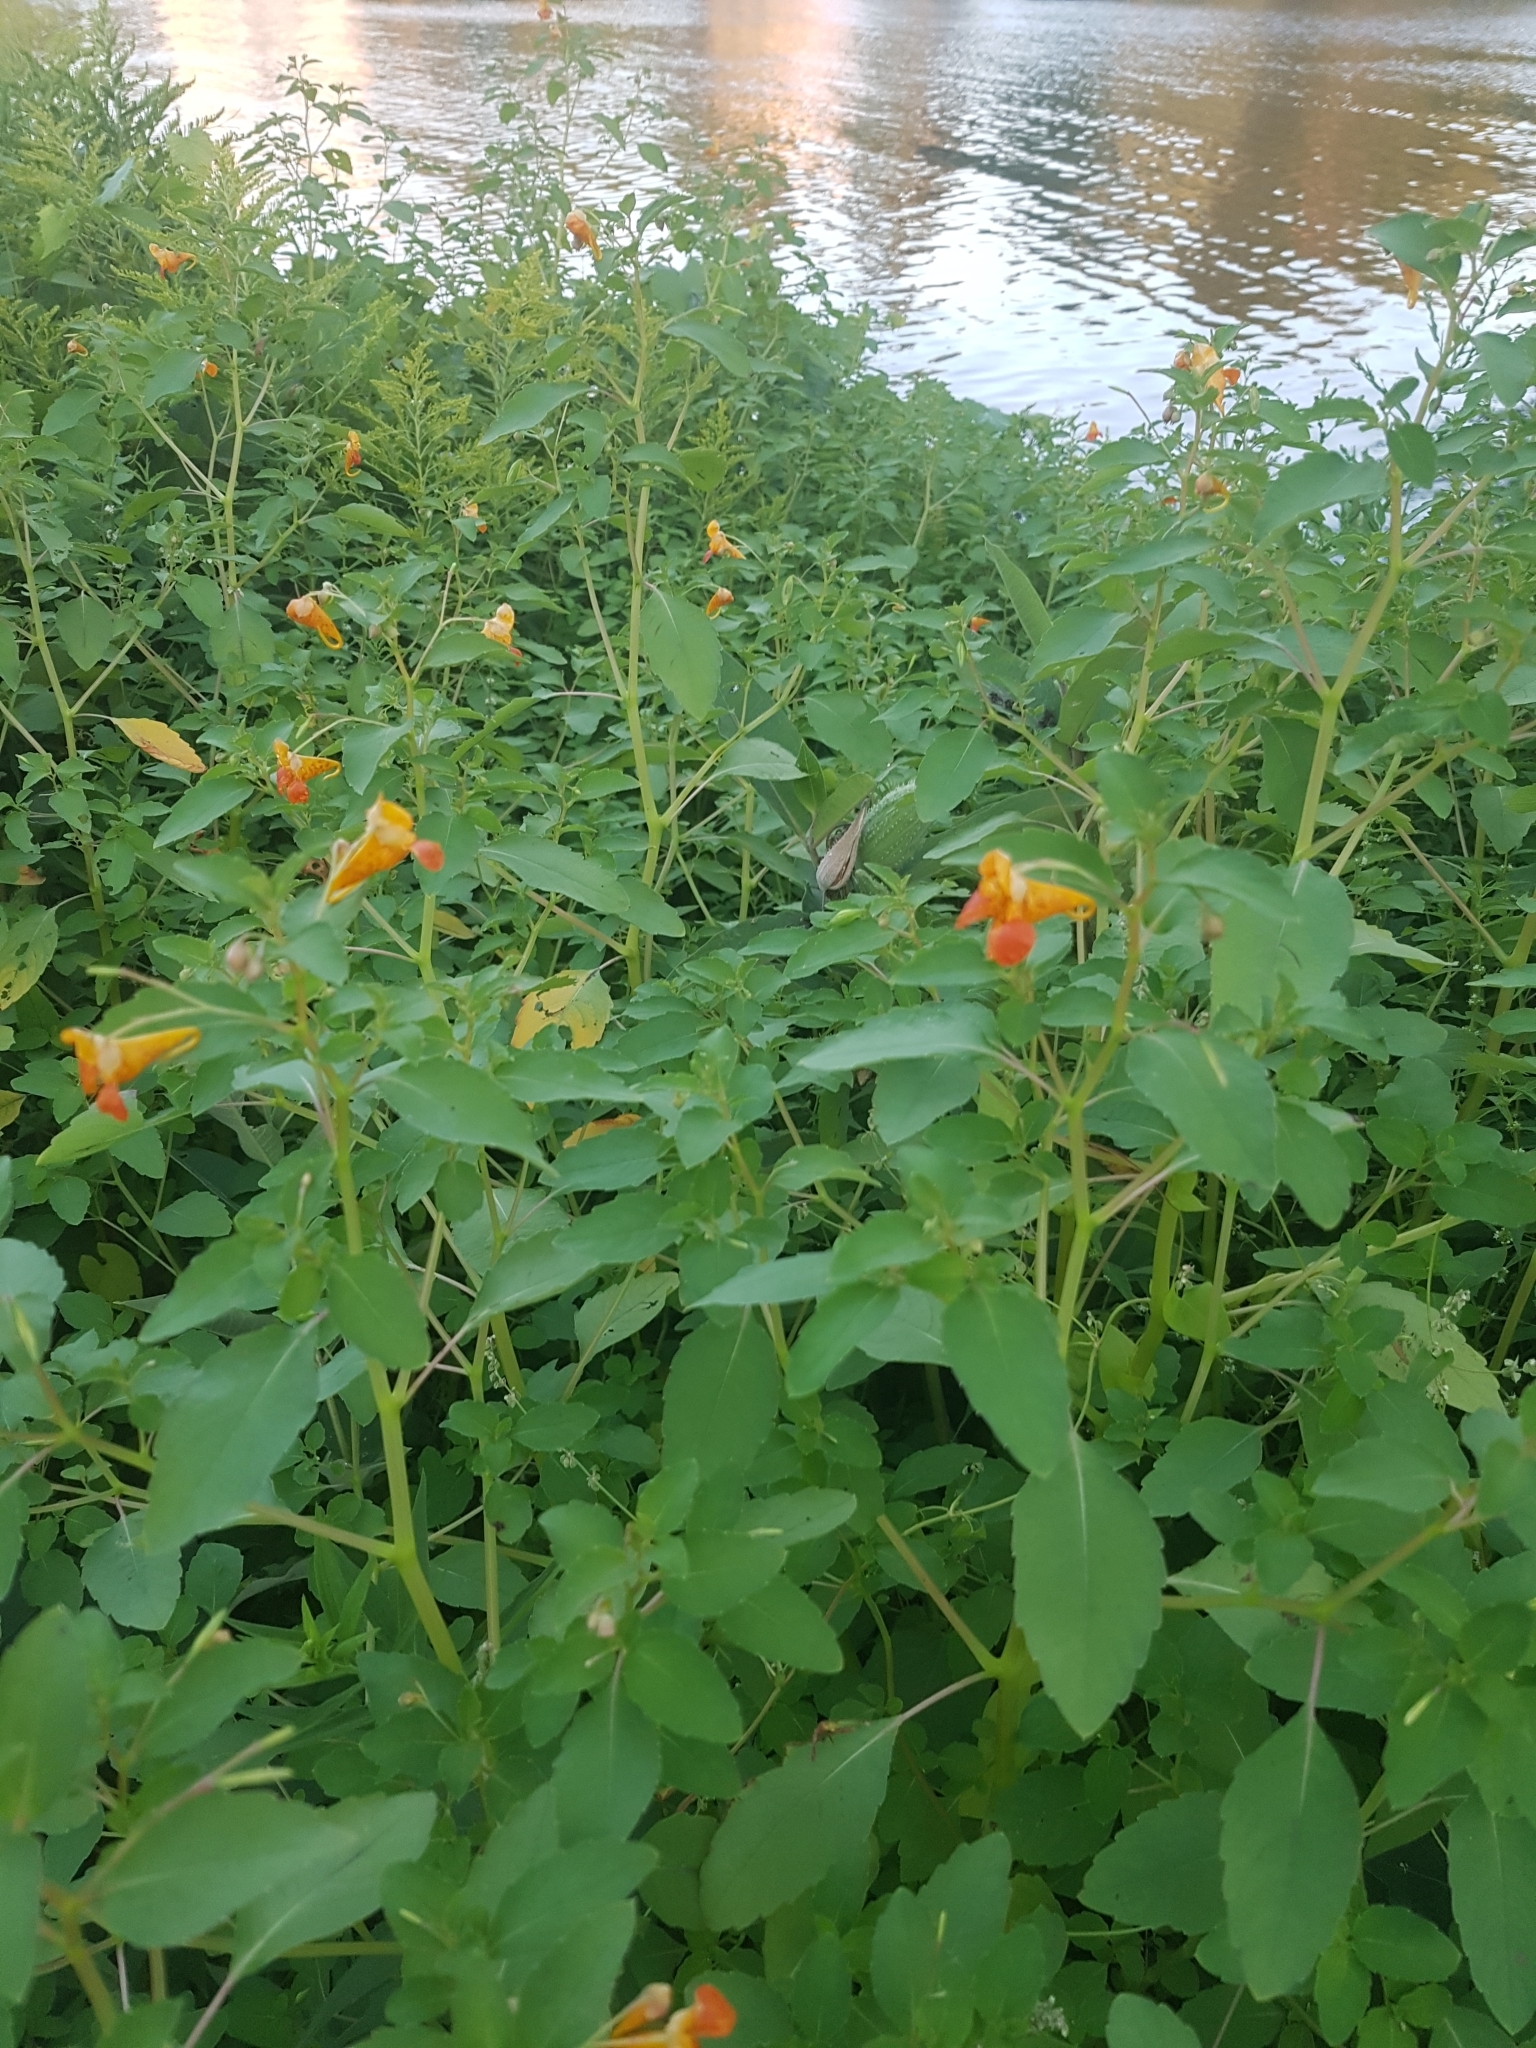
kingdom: Plantae
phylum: Tracheophyta
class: Magnoliopsida
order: Ericales
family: Balsaminaceae
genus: Impatiens
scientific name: Impatiens capensis
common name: Orange balsam
